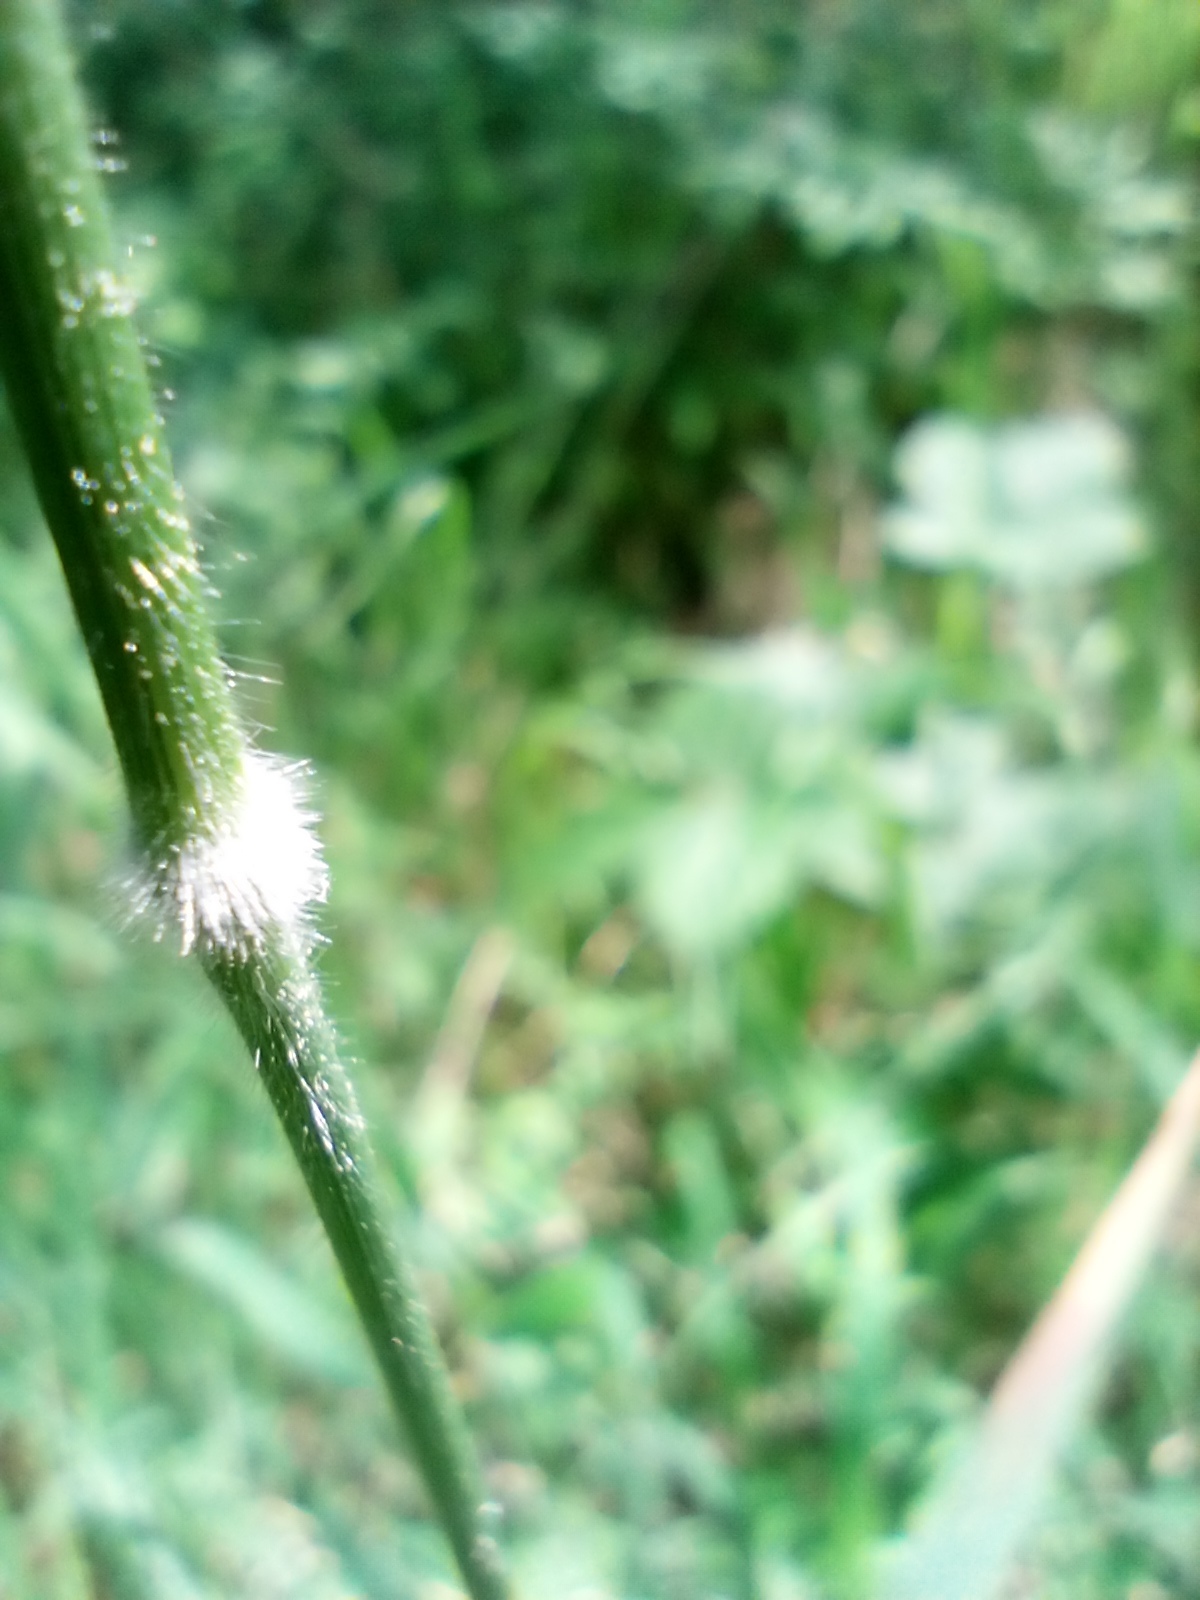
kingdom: Plantae
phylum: Tracheophyta
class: Liliopsida
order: Poales
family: Poaceae
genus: Brachypodium
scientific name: Brachypodium pinnatum
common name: Tor grass
